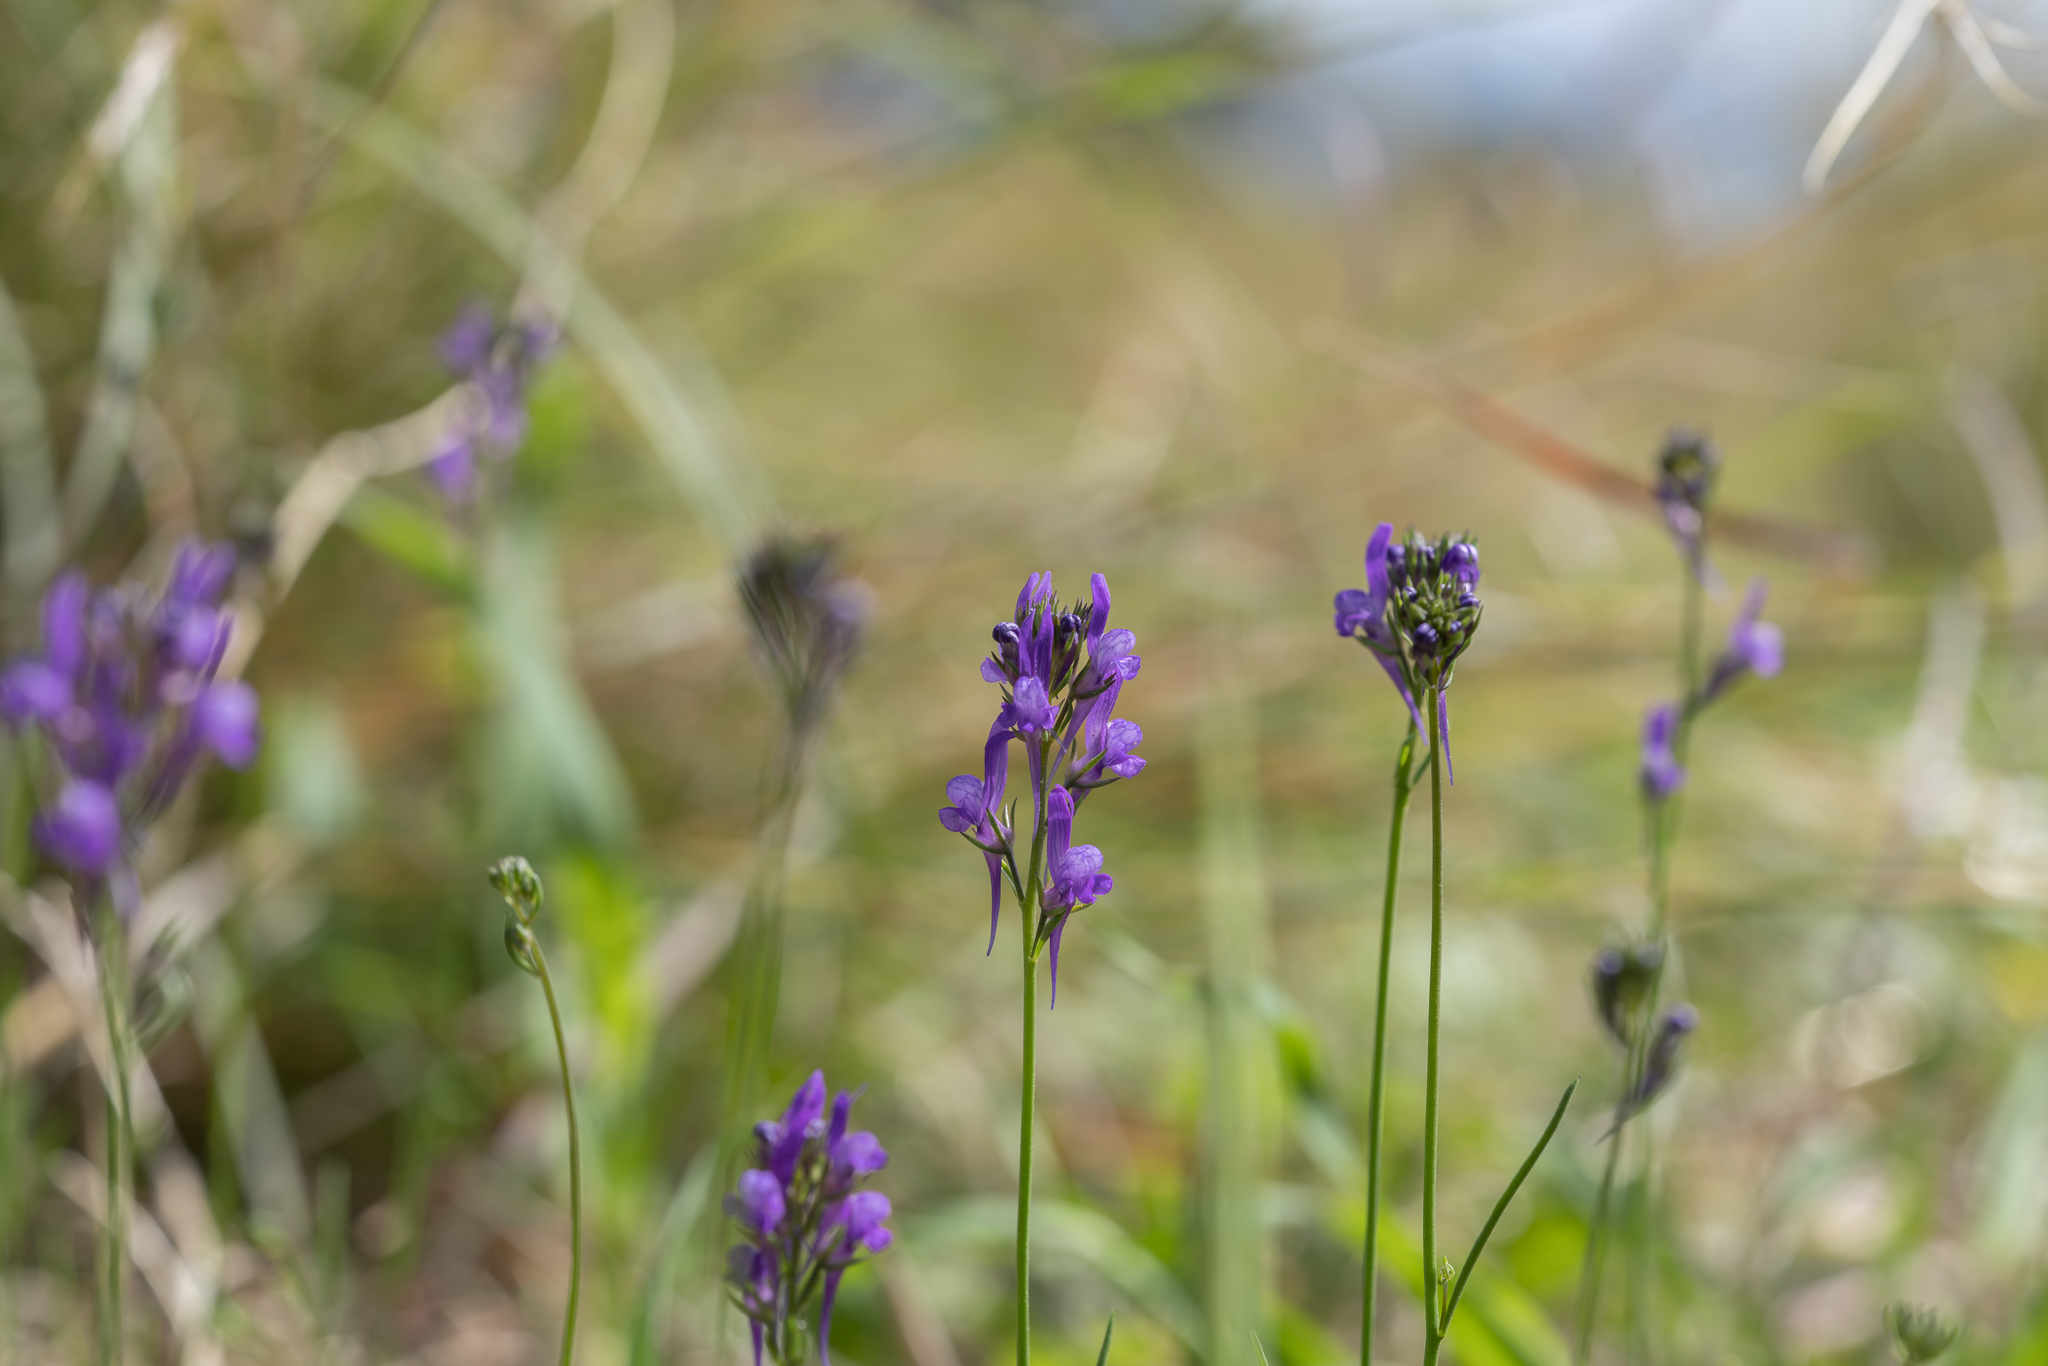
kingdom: Plantae
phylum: Tracheophyta
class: Magnoliopsida
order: Lamiales
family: Plantaginaceae
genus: Linaria
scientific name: Linaria pelisseriana
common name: Jersey toadflax
